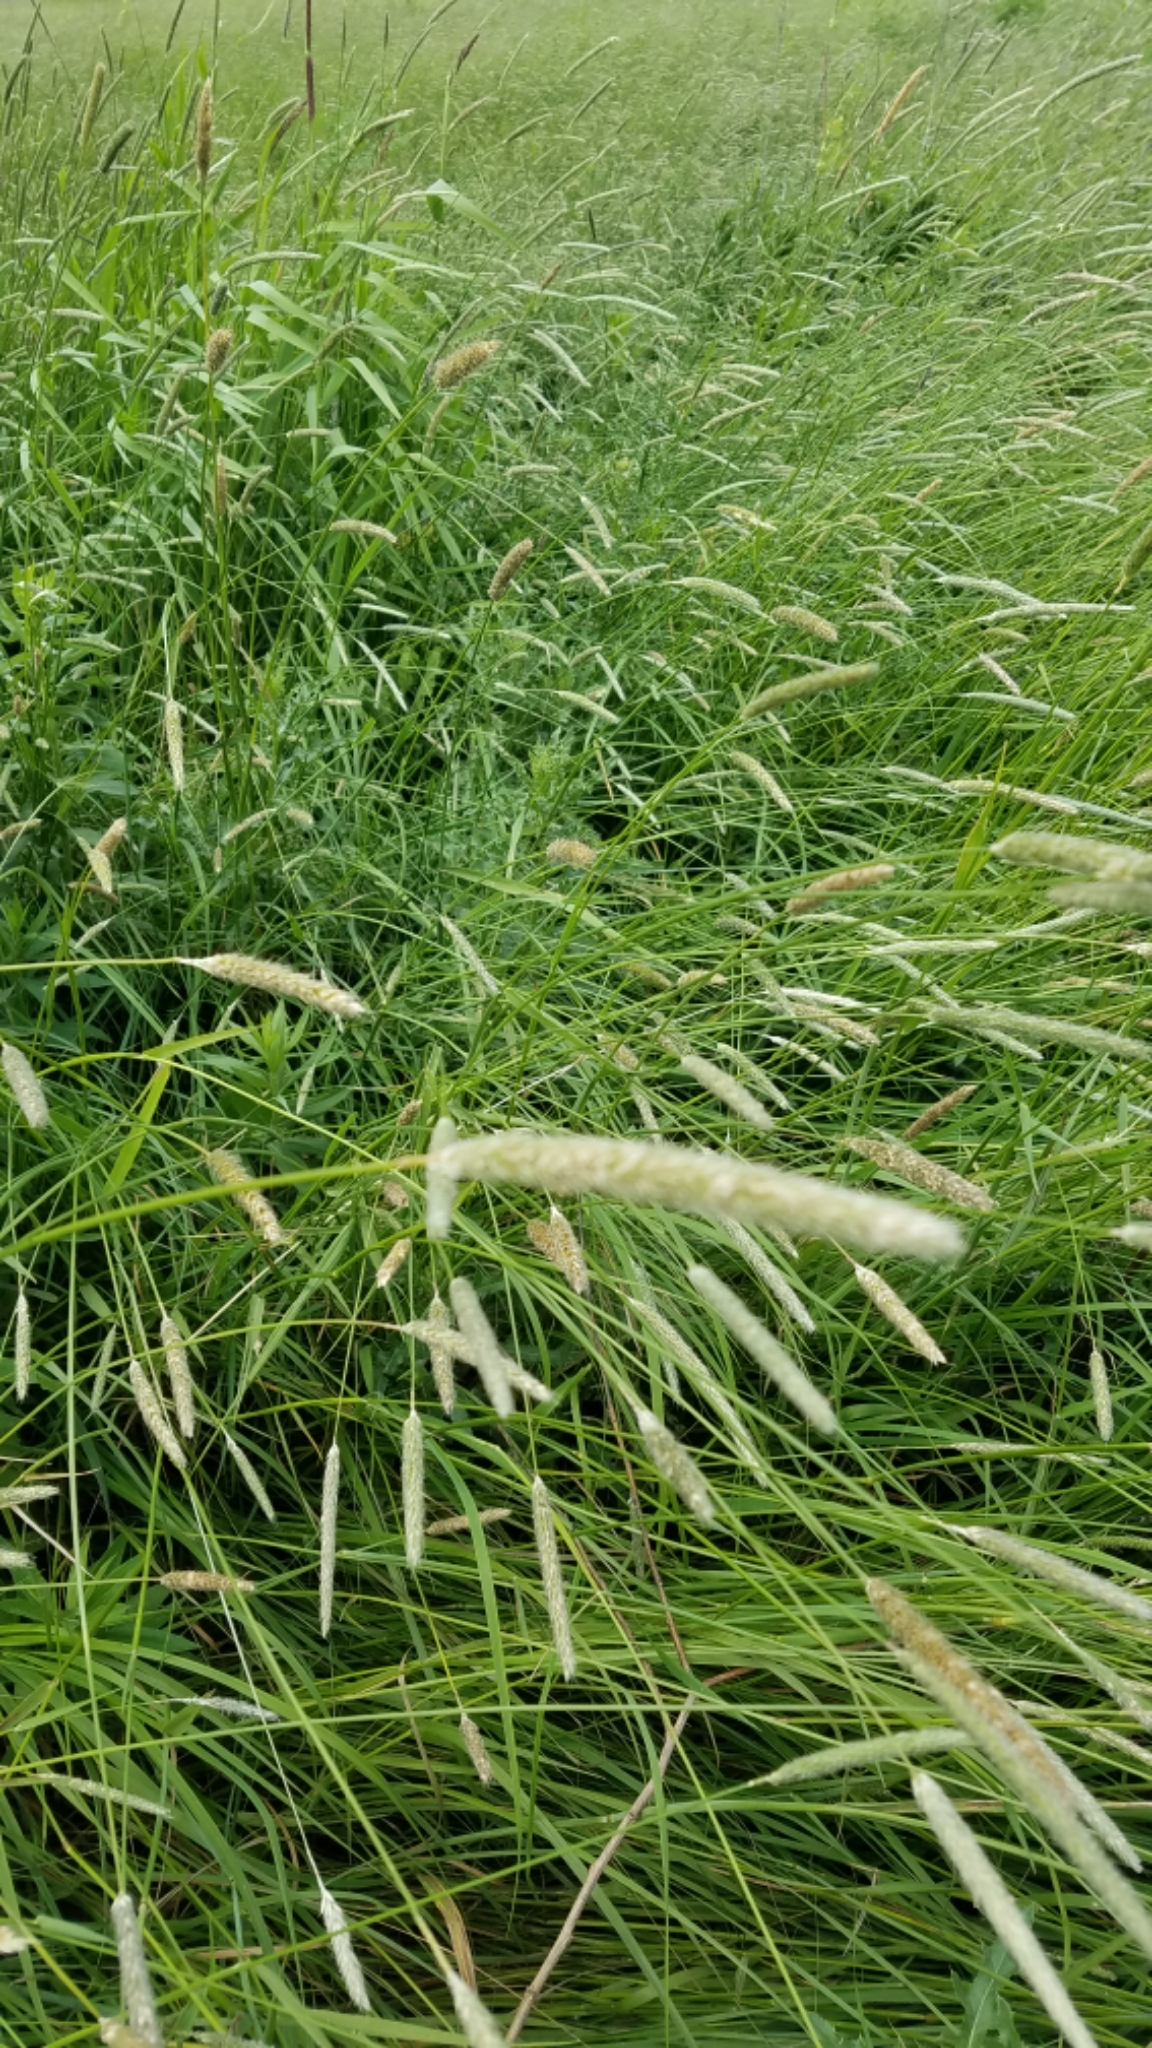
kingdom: Plantae
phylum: Tracheophyta
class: Liliopsida
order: Poales
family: Poaceae
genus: Phleum
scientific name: Phleum pratense
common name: Timothy grass
